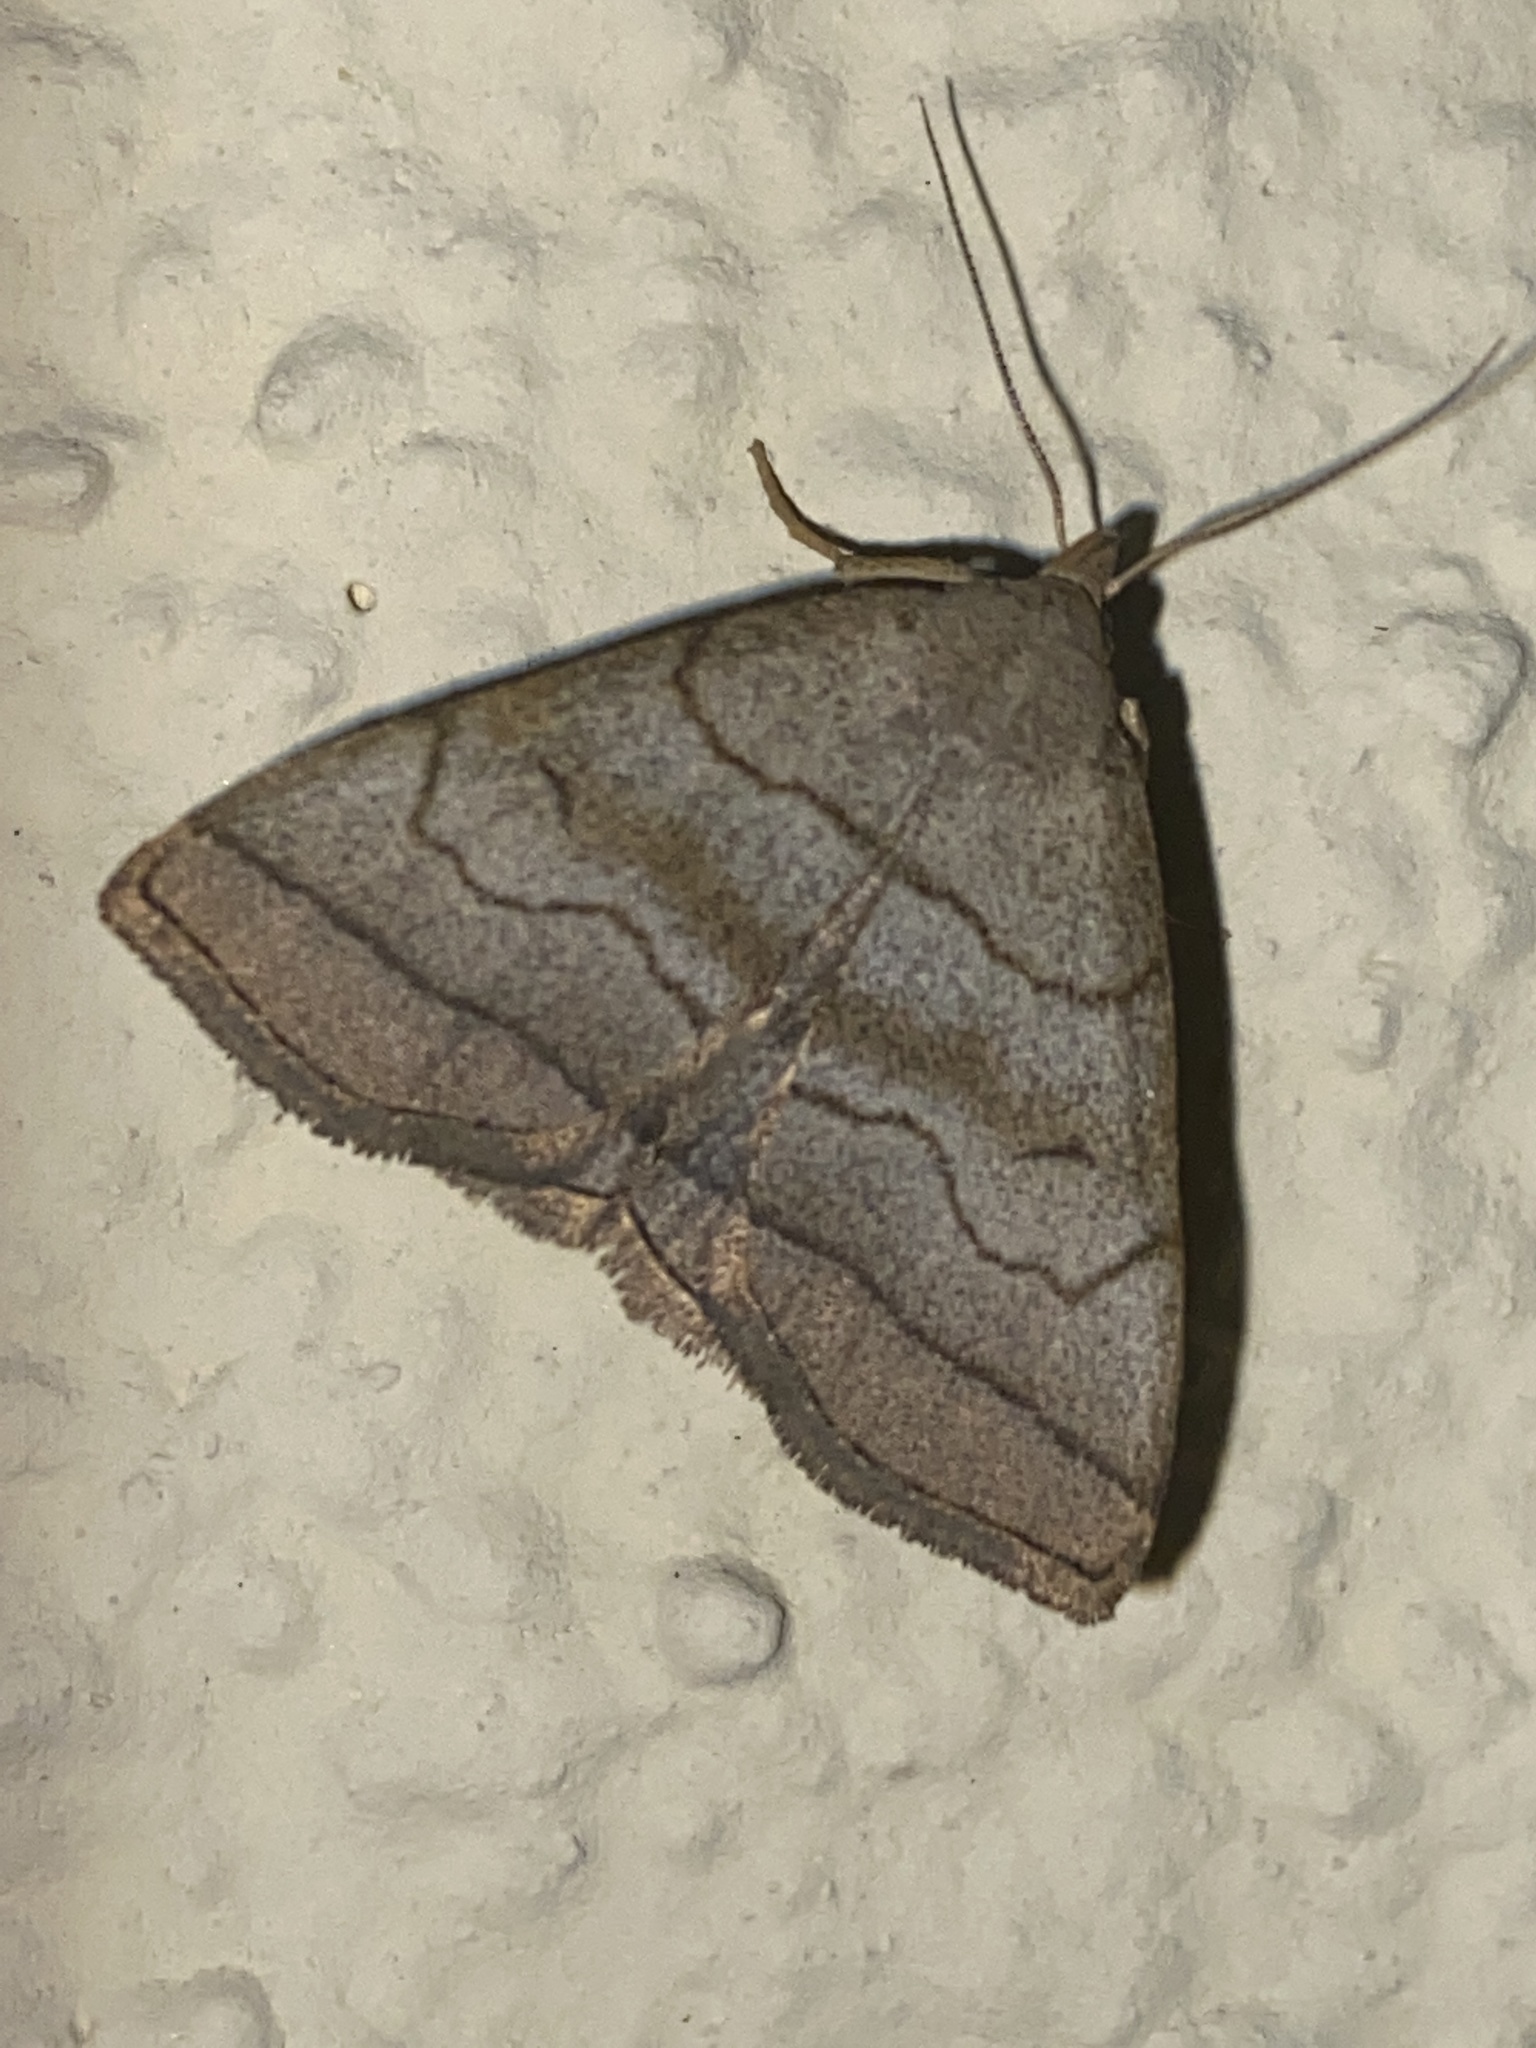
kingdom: Animalia
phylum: Arthropoda
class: Insecta
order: Lepidoptera
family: Erebidae
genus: Herminia
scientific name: Herminia tarsicrinalis
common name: Shaded fan-foot
